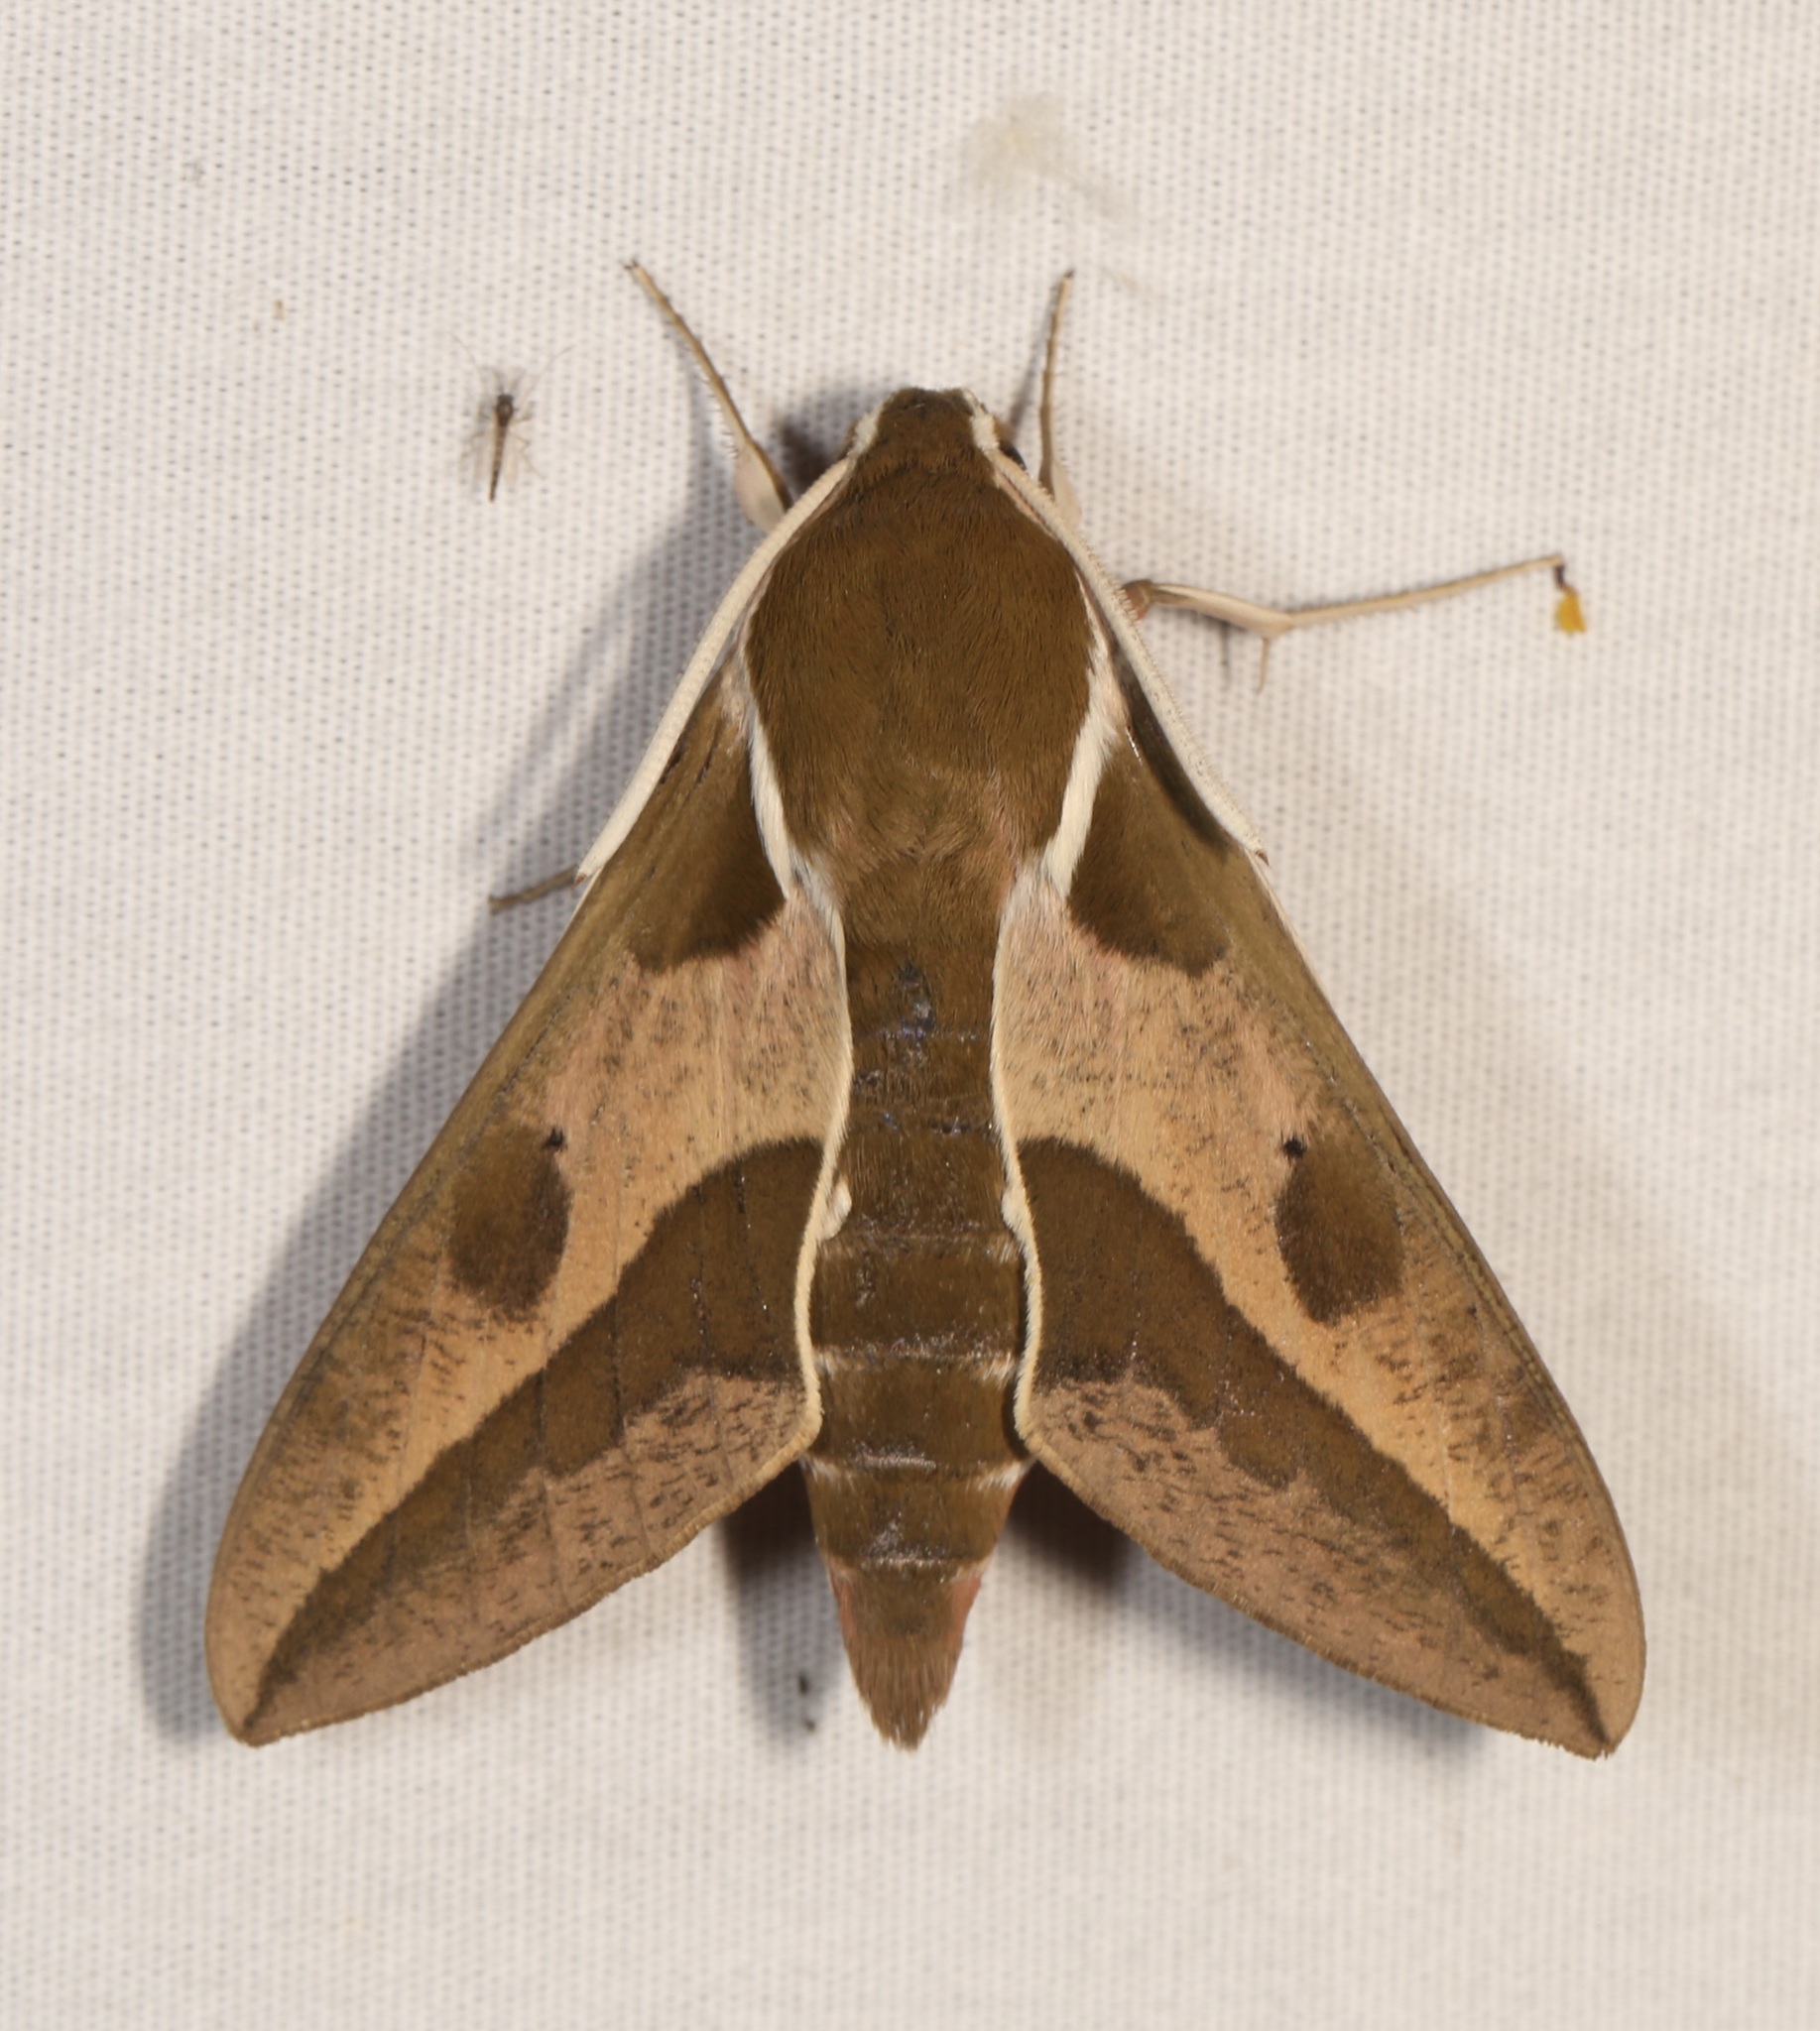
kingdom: Animalia
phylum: Arthropoda
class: Insecta
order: Lepidoptera
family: Sphingidae
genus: Hyles
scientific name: Hyles euphorbiae
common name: Spurge hawk-moth
